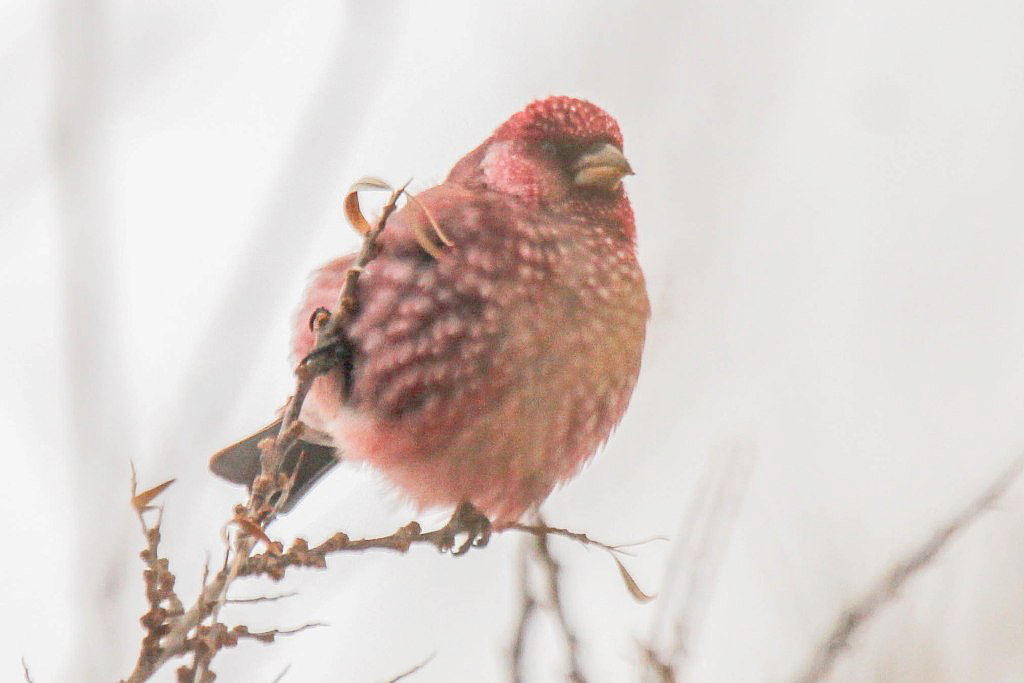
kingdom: Animalia
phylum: Chordata
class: Aves
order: Passeriformes
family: Fringillidae
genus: Carpodacus
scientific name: Carpodacus rubicilla
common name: Great rosefinch
